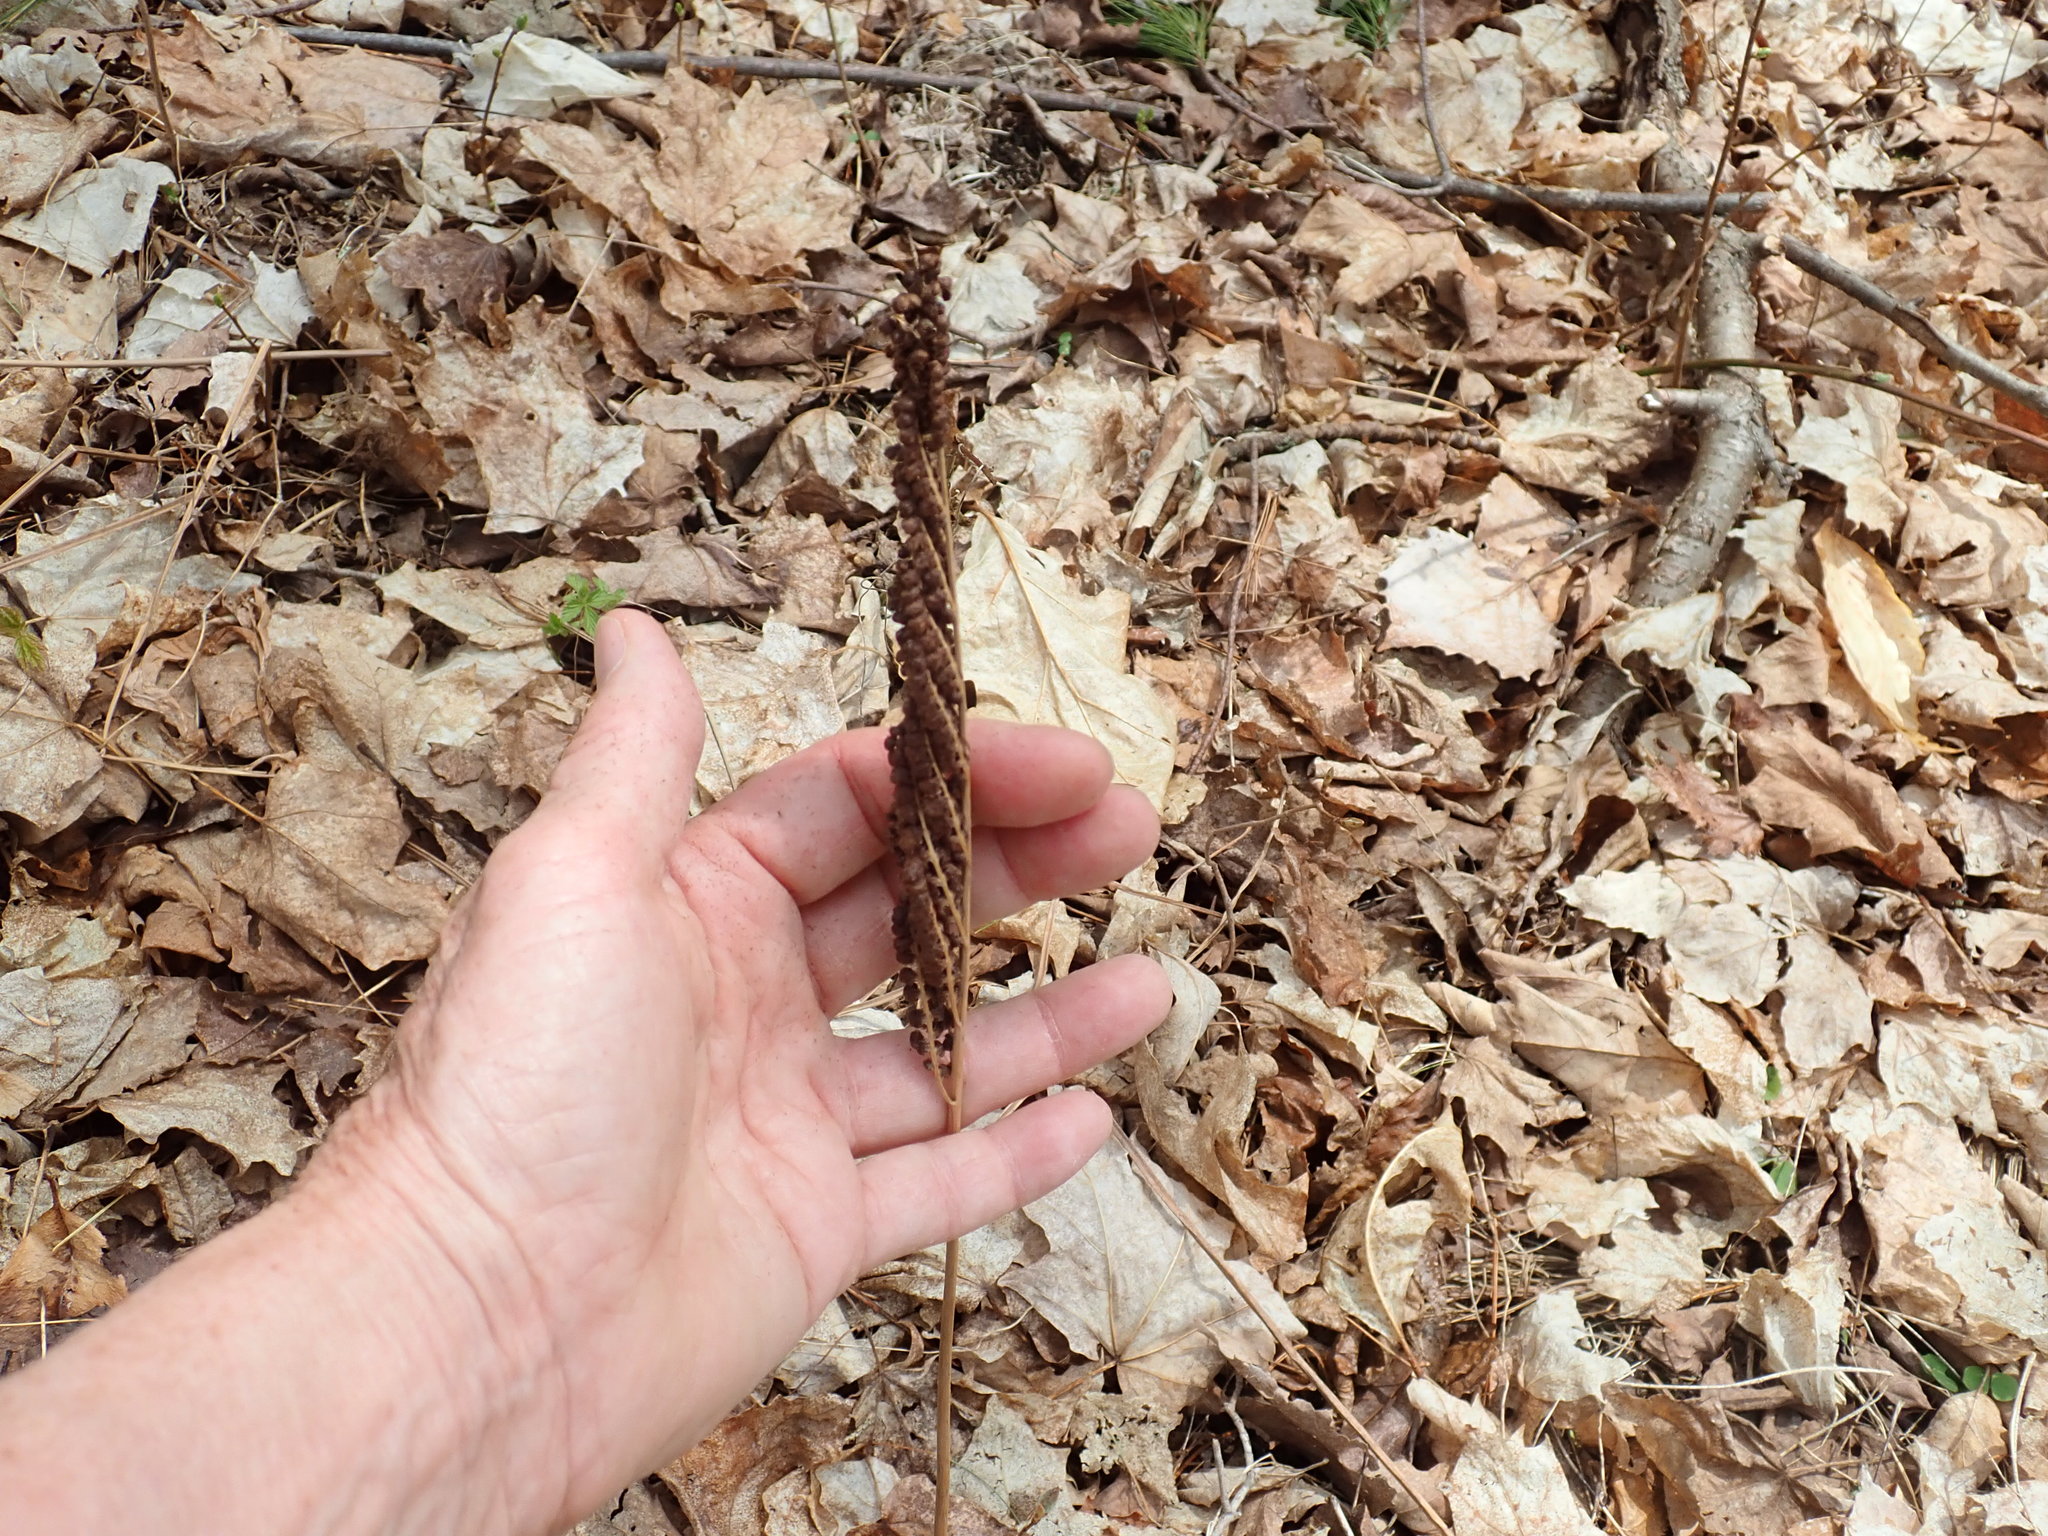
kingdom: Plantae
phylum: Tracheophyta
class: Polypodiopsida
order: Polypodiales
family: Onocleaceae
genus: Onoclea
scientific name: Onoclea sensibilis
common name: Sensitive fern
